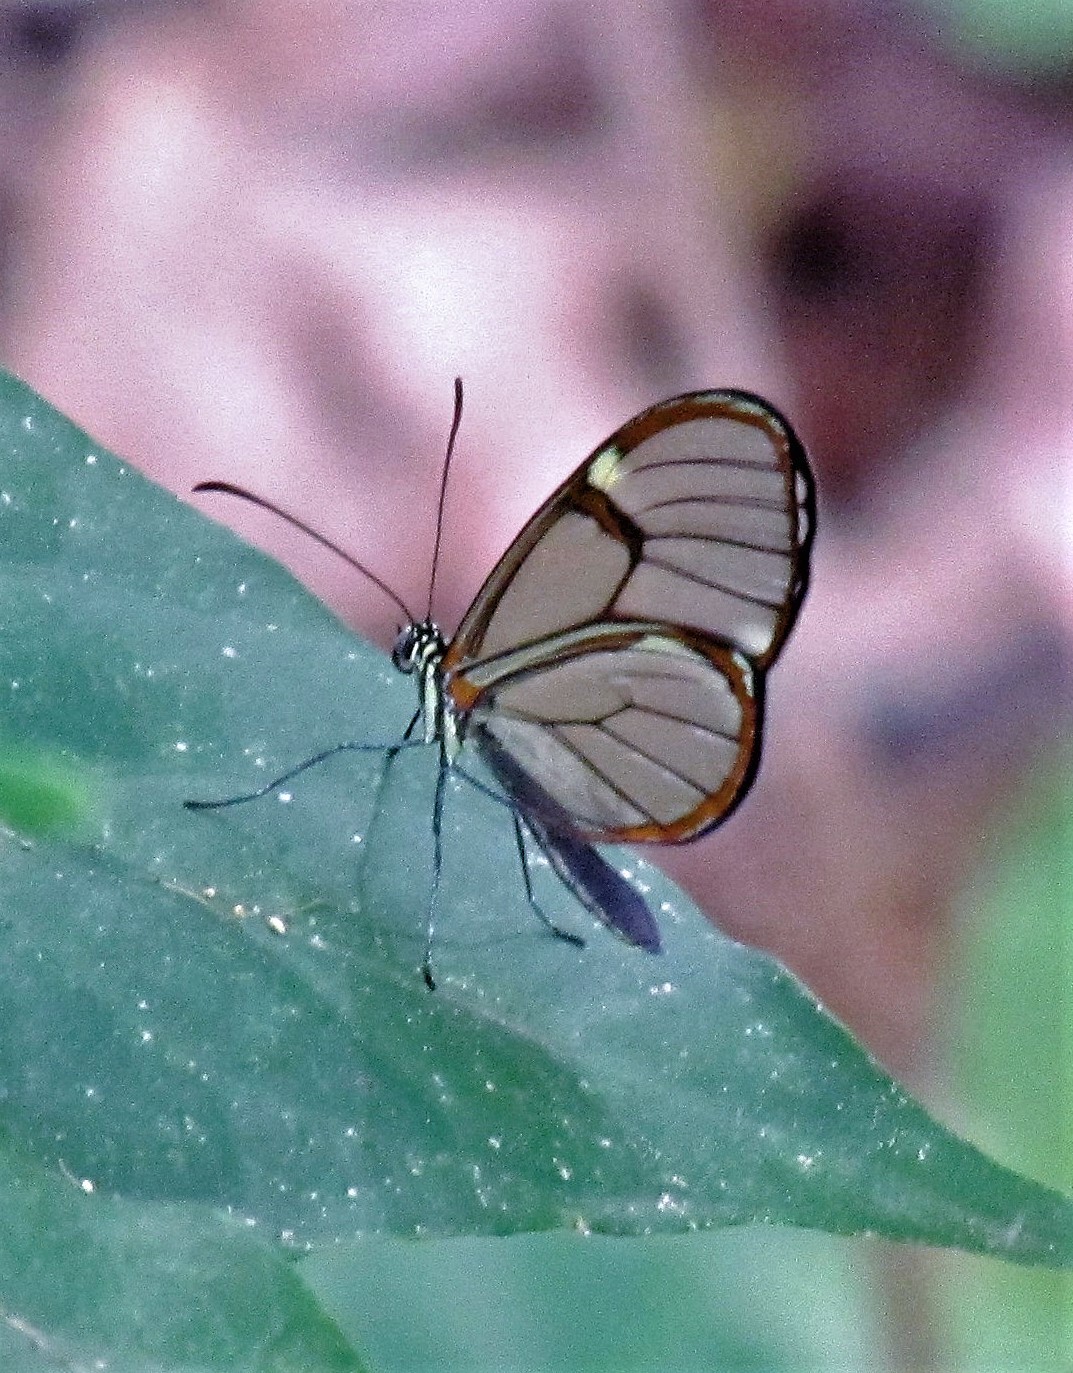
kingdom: Animalia
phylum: Arthropoda
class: Insecta
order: Lepidoptera
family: Nymphalidae
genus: Episcada
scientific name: Episcada hymenaea
